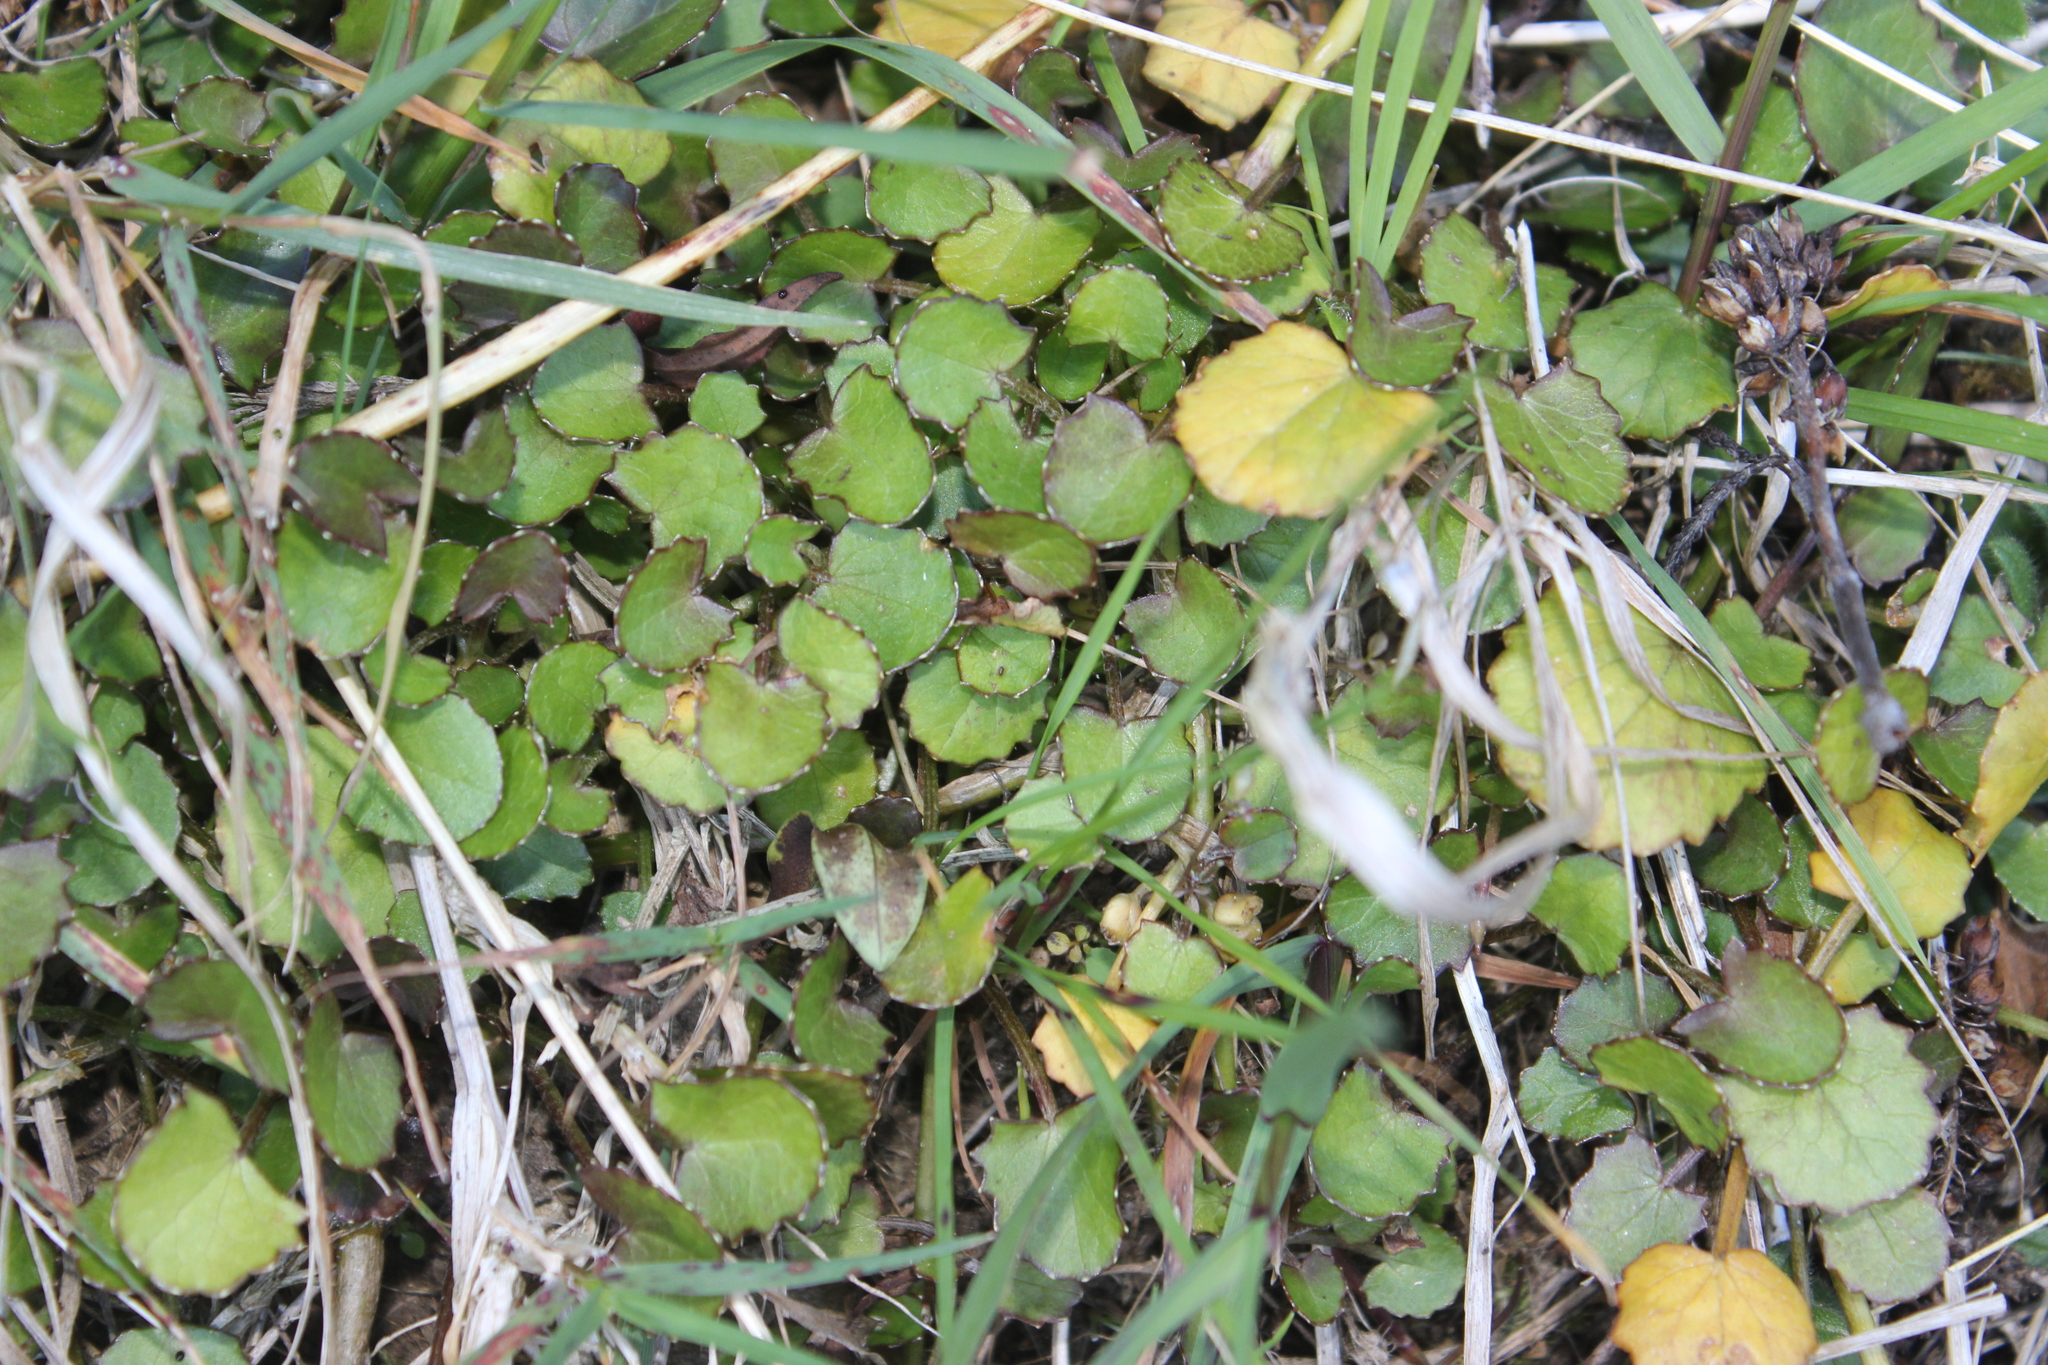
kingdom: Plantae
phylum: Tracheophyta
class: Magnoliopsida
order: Apiales
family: Apiaceae
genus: Centella
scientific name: Centella uniflora
